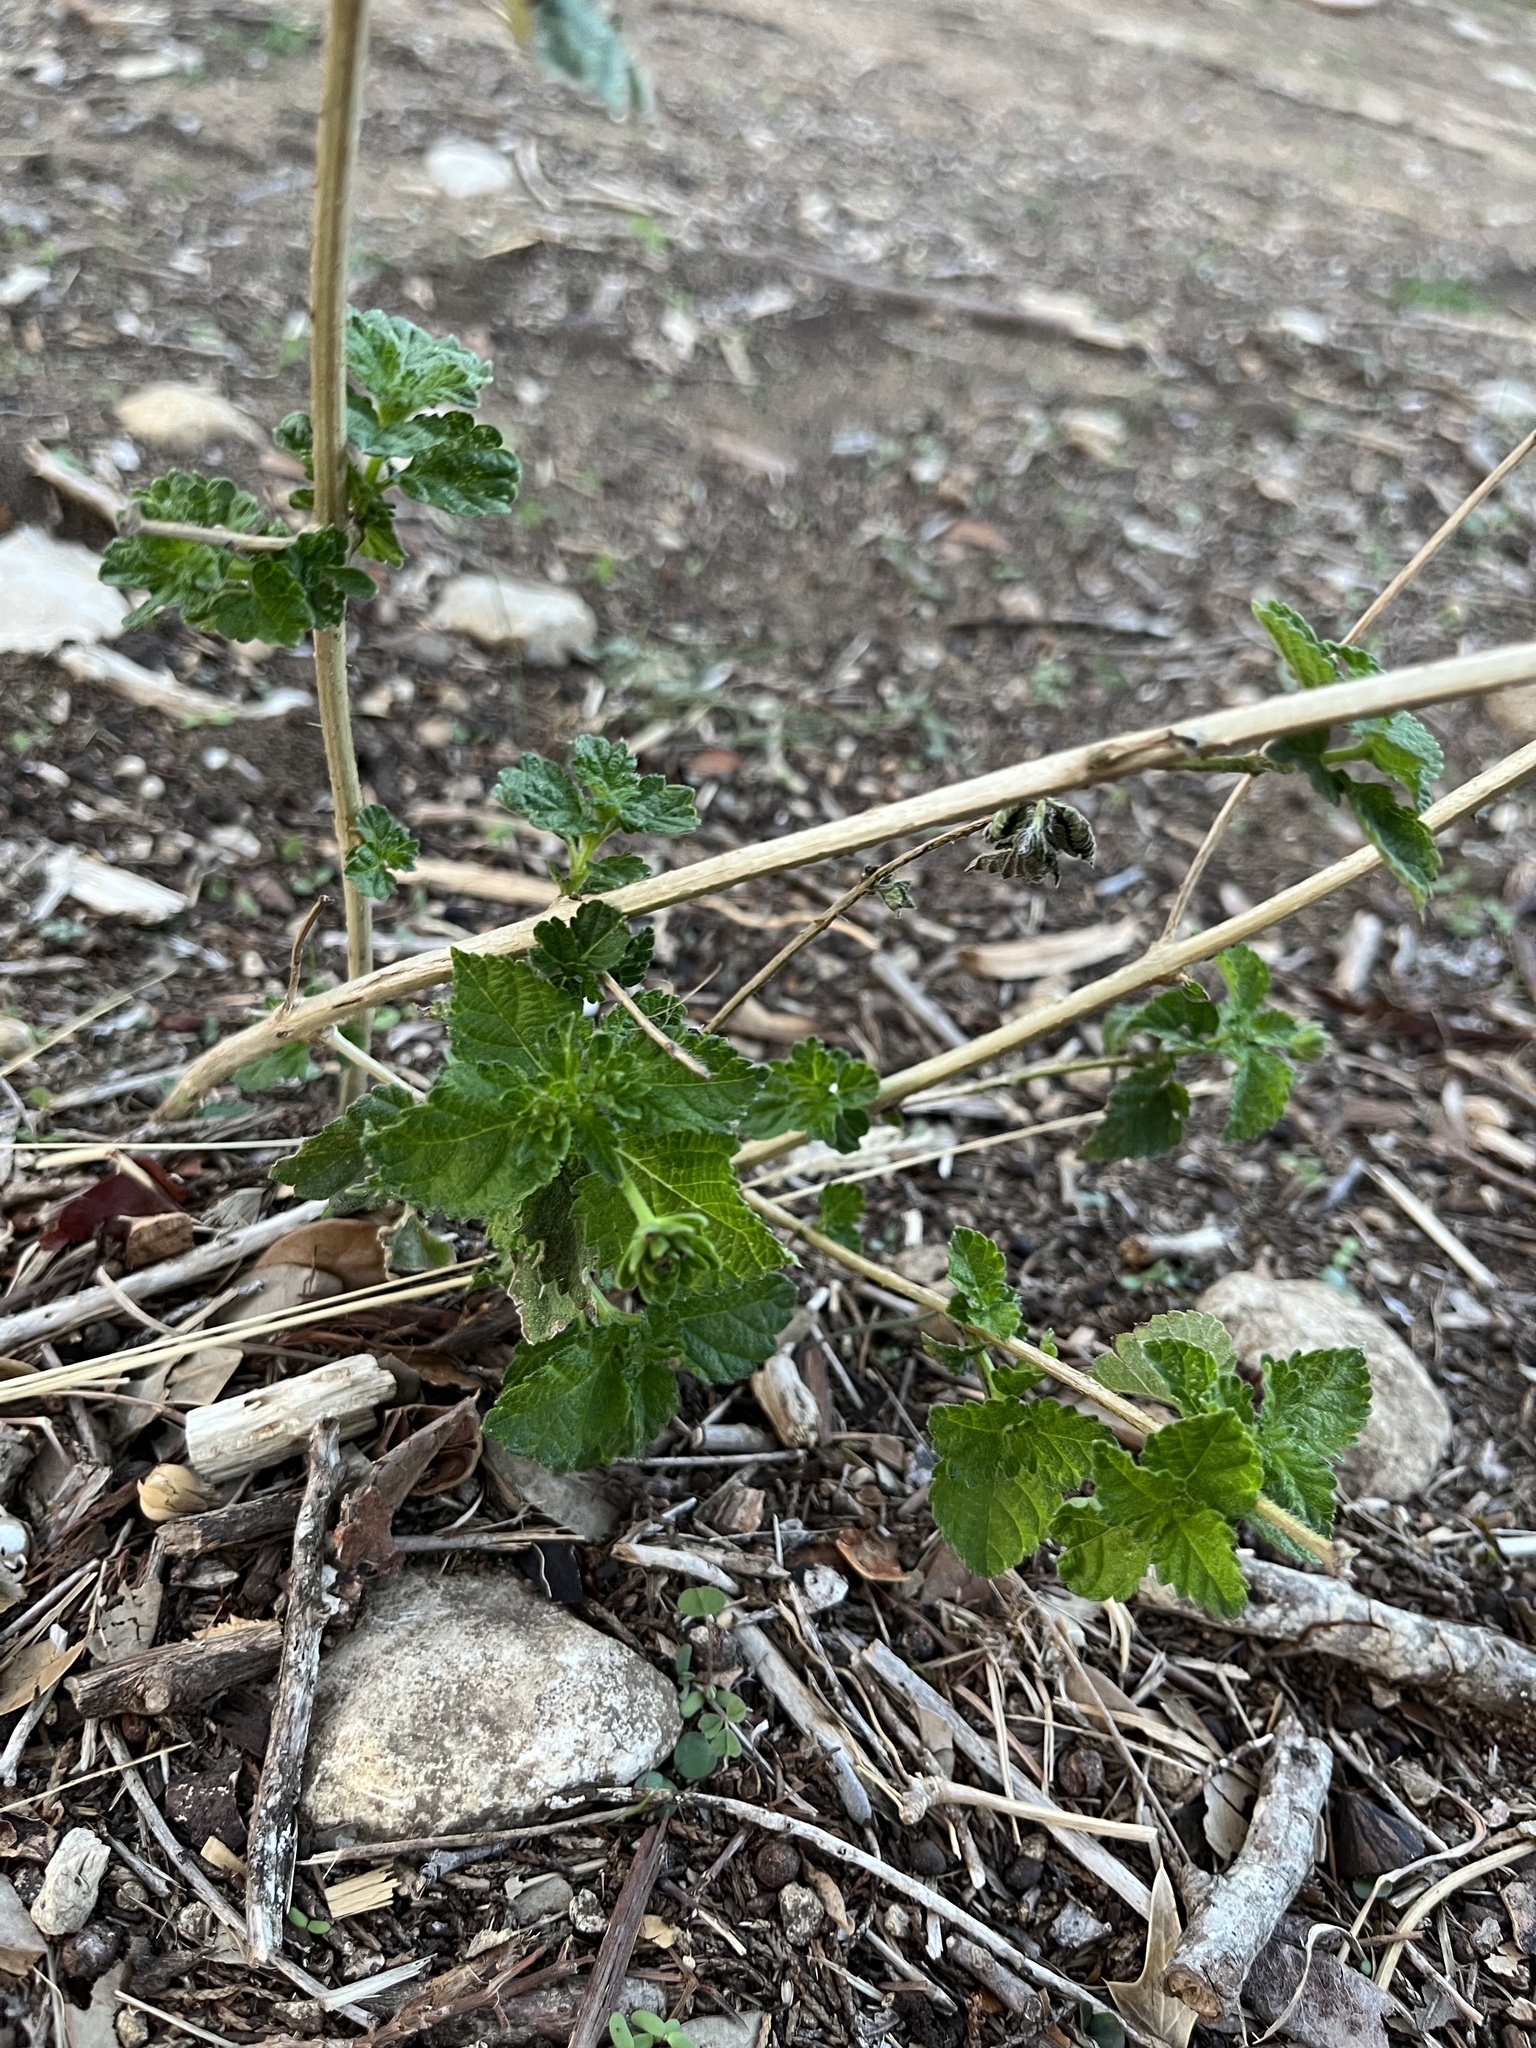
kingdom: Plantae
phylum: Tracheophyta
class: Magnoliopsida
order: Lamiales
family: Verbenaceae
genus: Lantana
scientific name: Lantana urticoides
